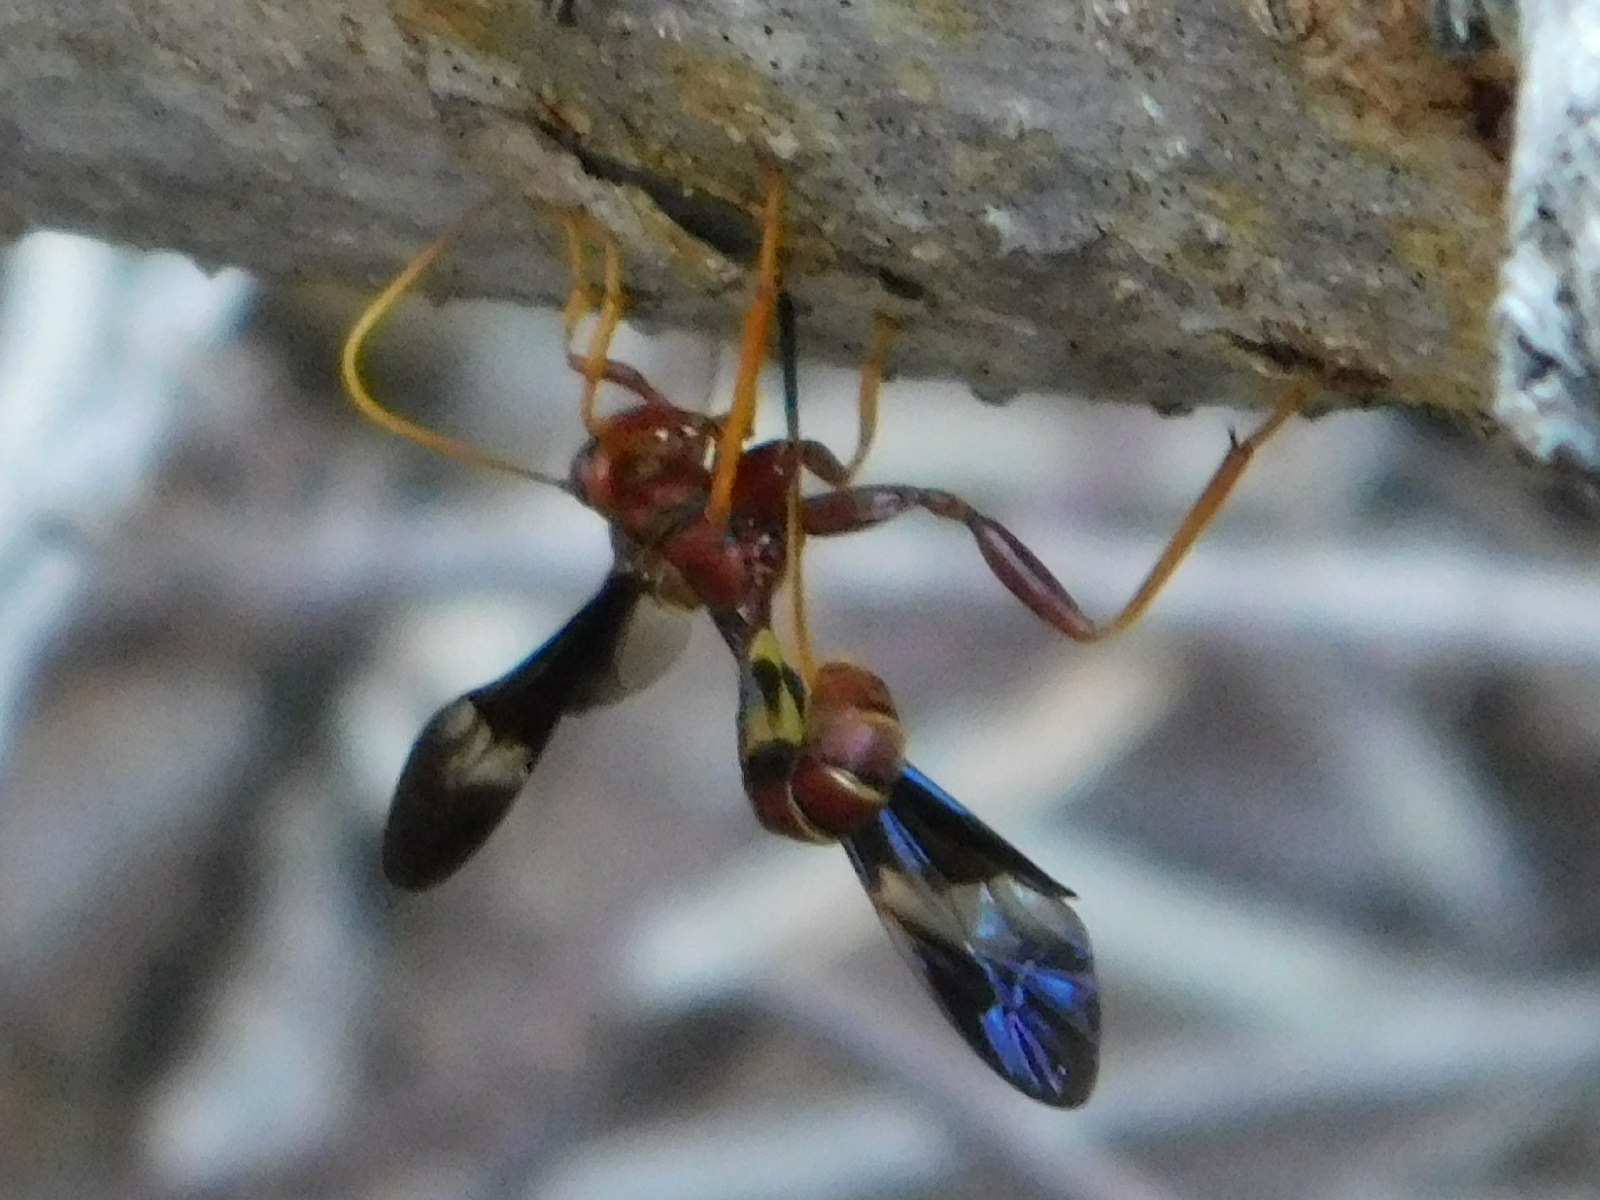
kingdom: Animalia
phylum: Arthropoda
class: Insecta
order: Hymenoptera
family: Ichneumonidae
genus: Labena
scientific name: Labena grallator
